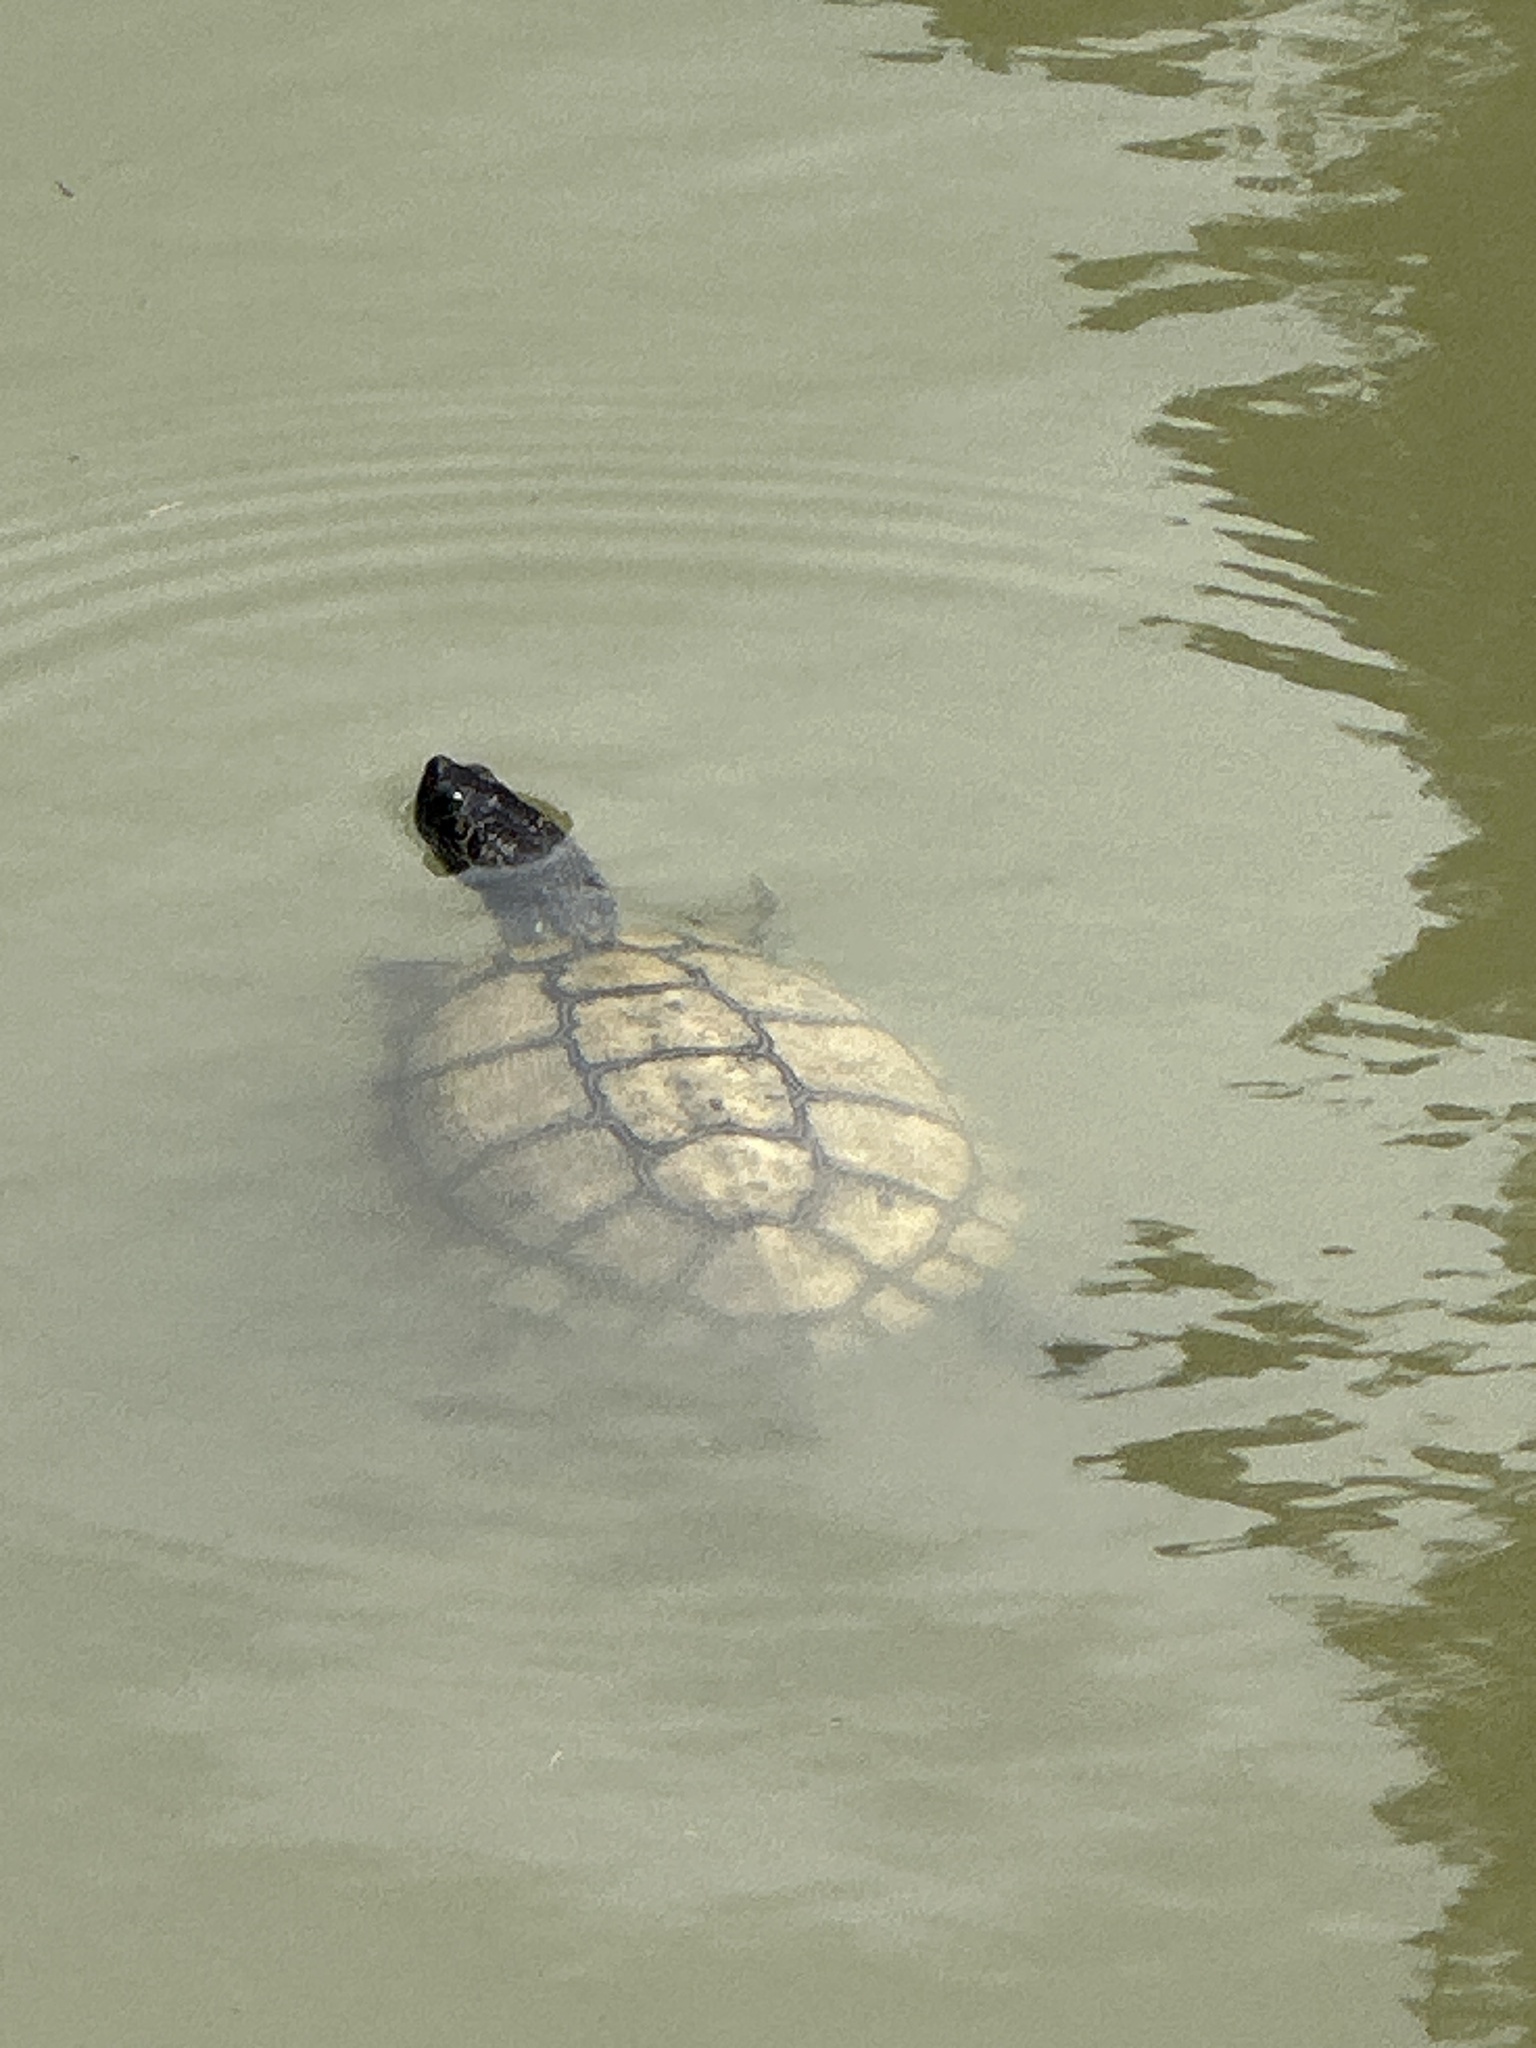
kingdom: Animalia
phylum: Chordata
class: Testudines
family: Emydidae
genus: Trachemys
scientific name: Trachemys scripta
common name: Slider
